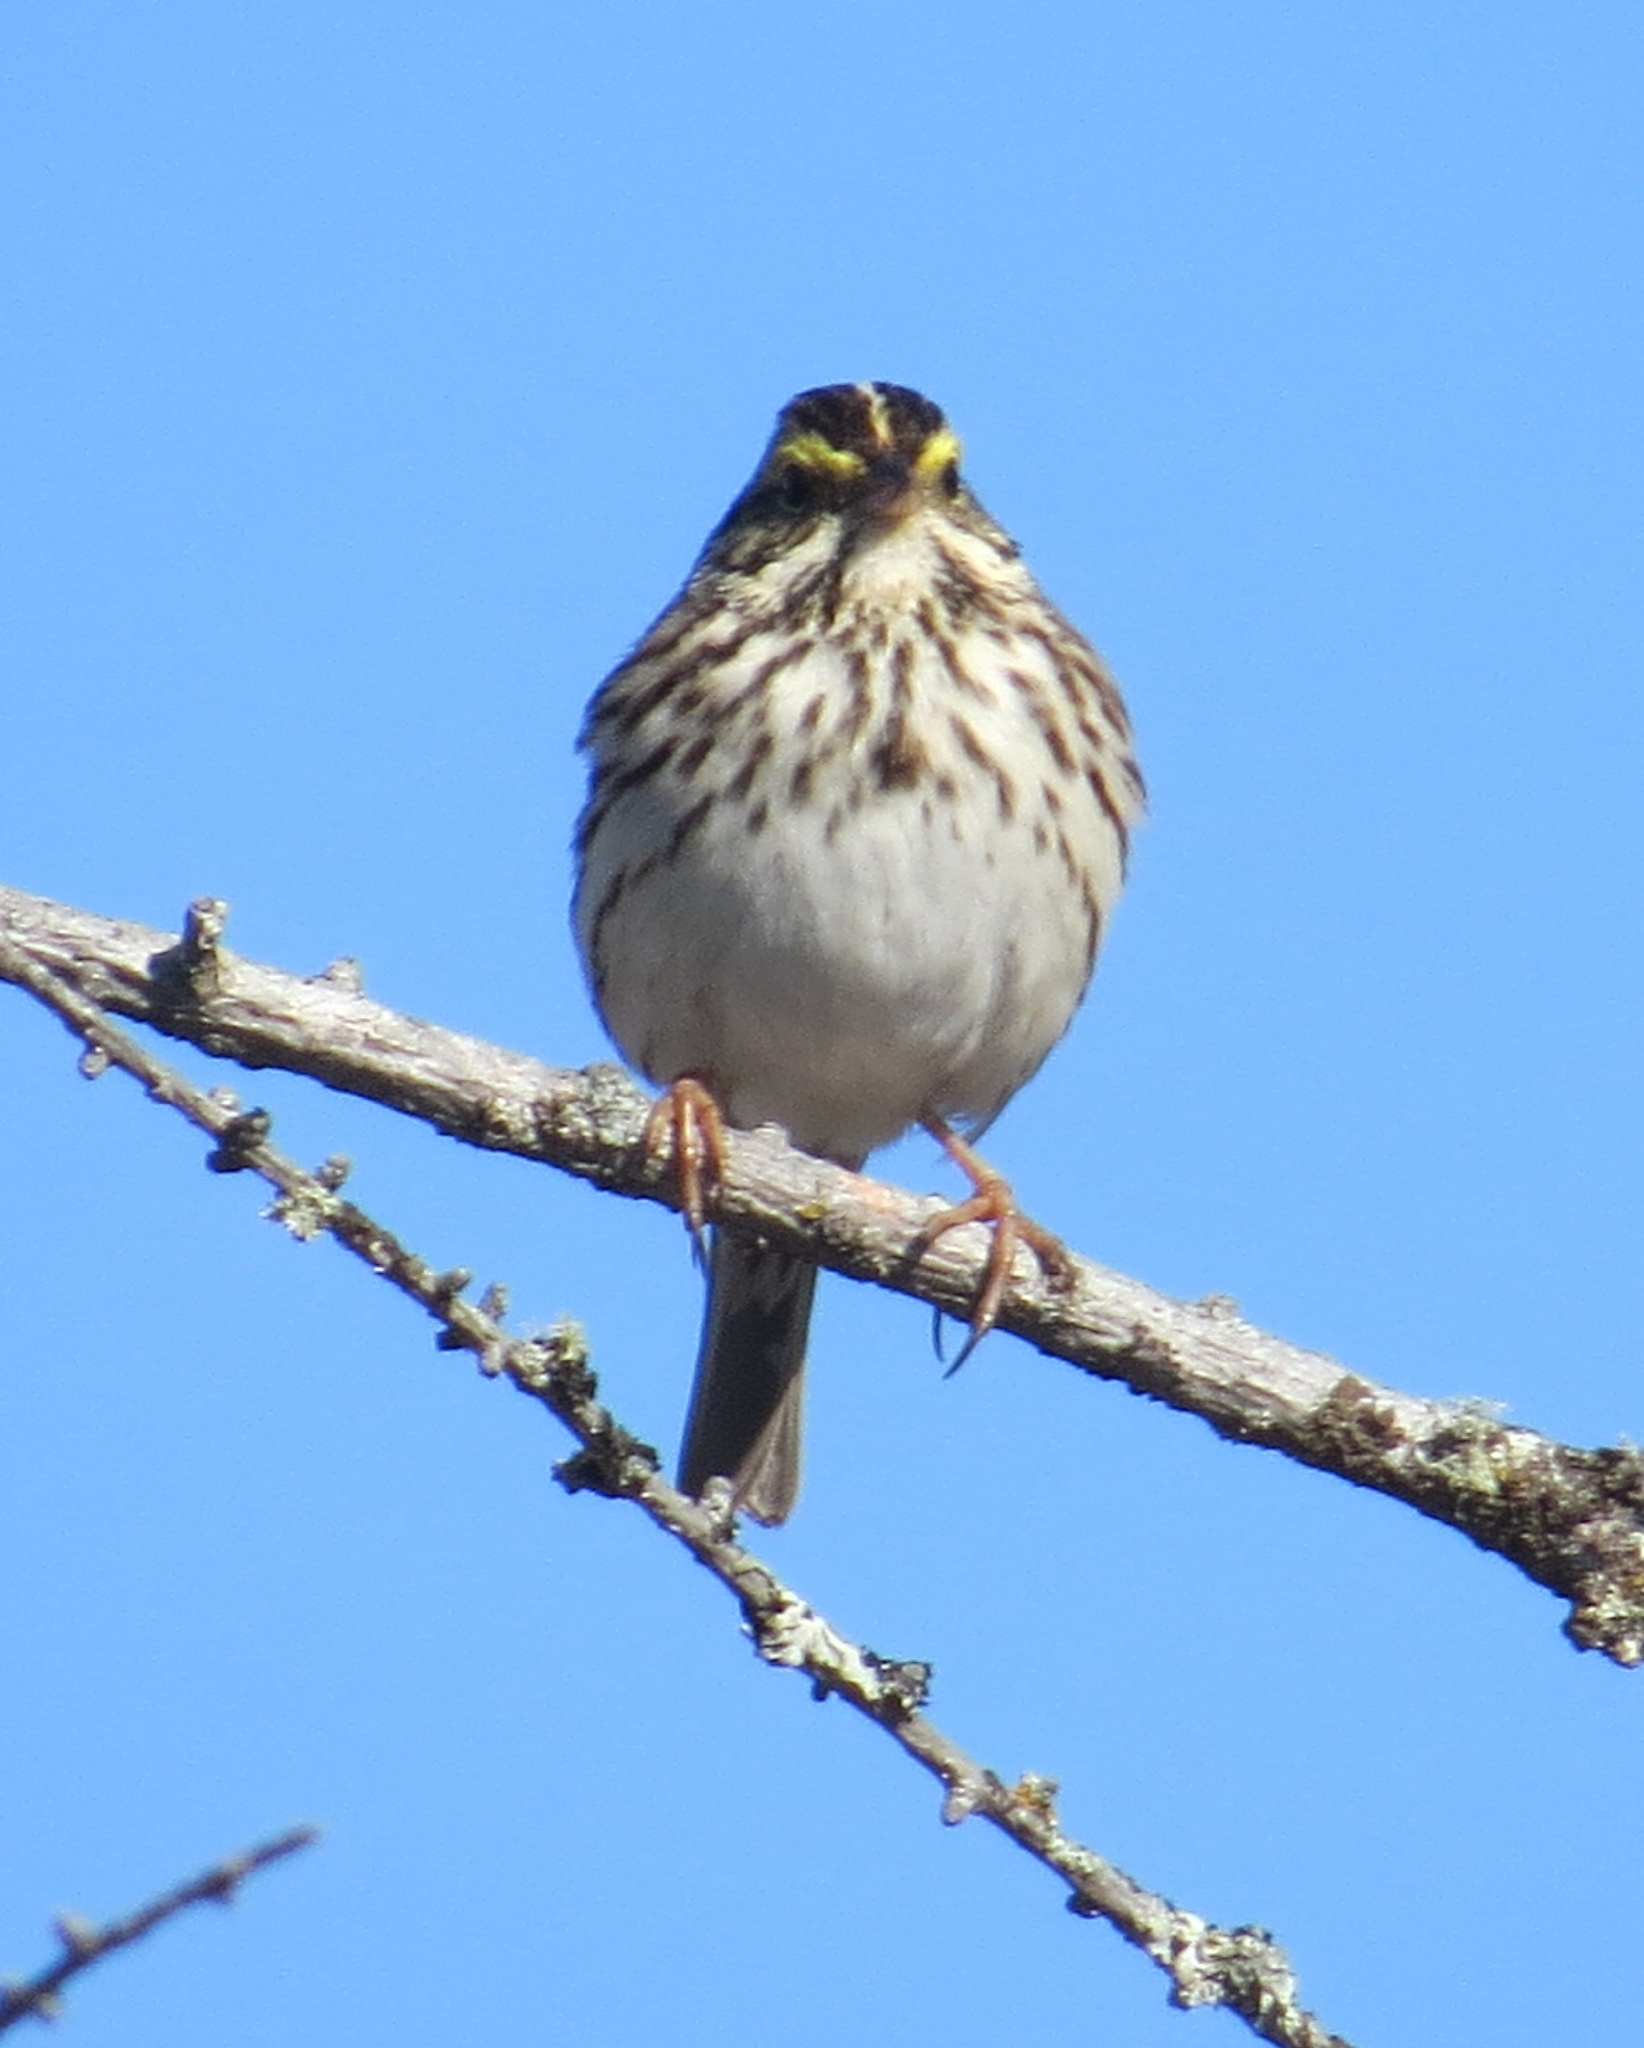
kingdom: Animalia
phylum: Chordata
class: Aves
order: Passeriformes
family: Passerellidae
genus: Passerculus
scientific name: Passerculus sandwichensis
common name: Savannah sparrow
